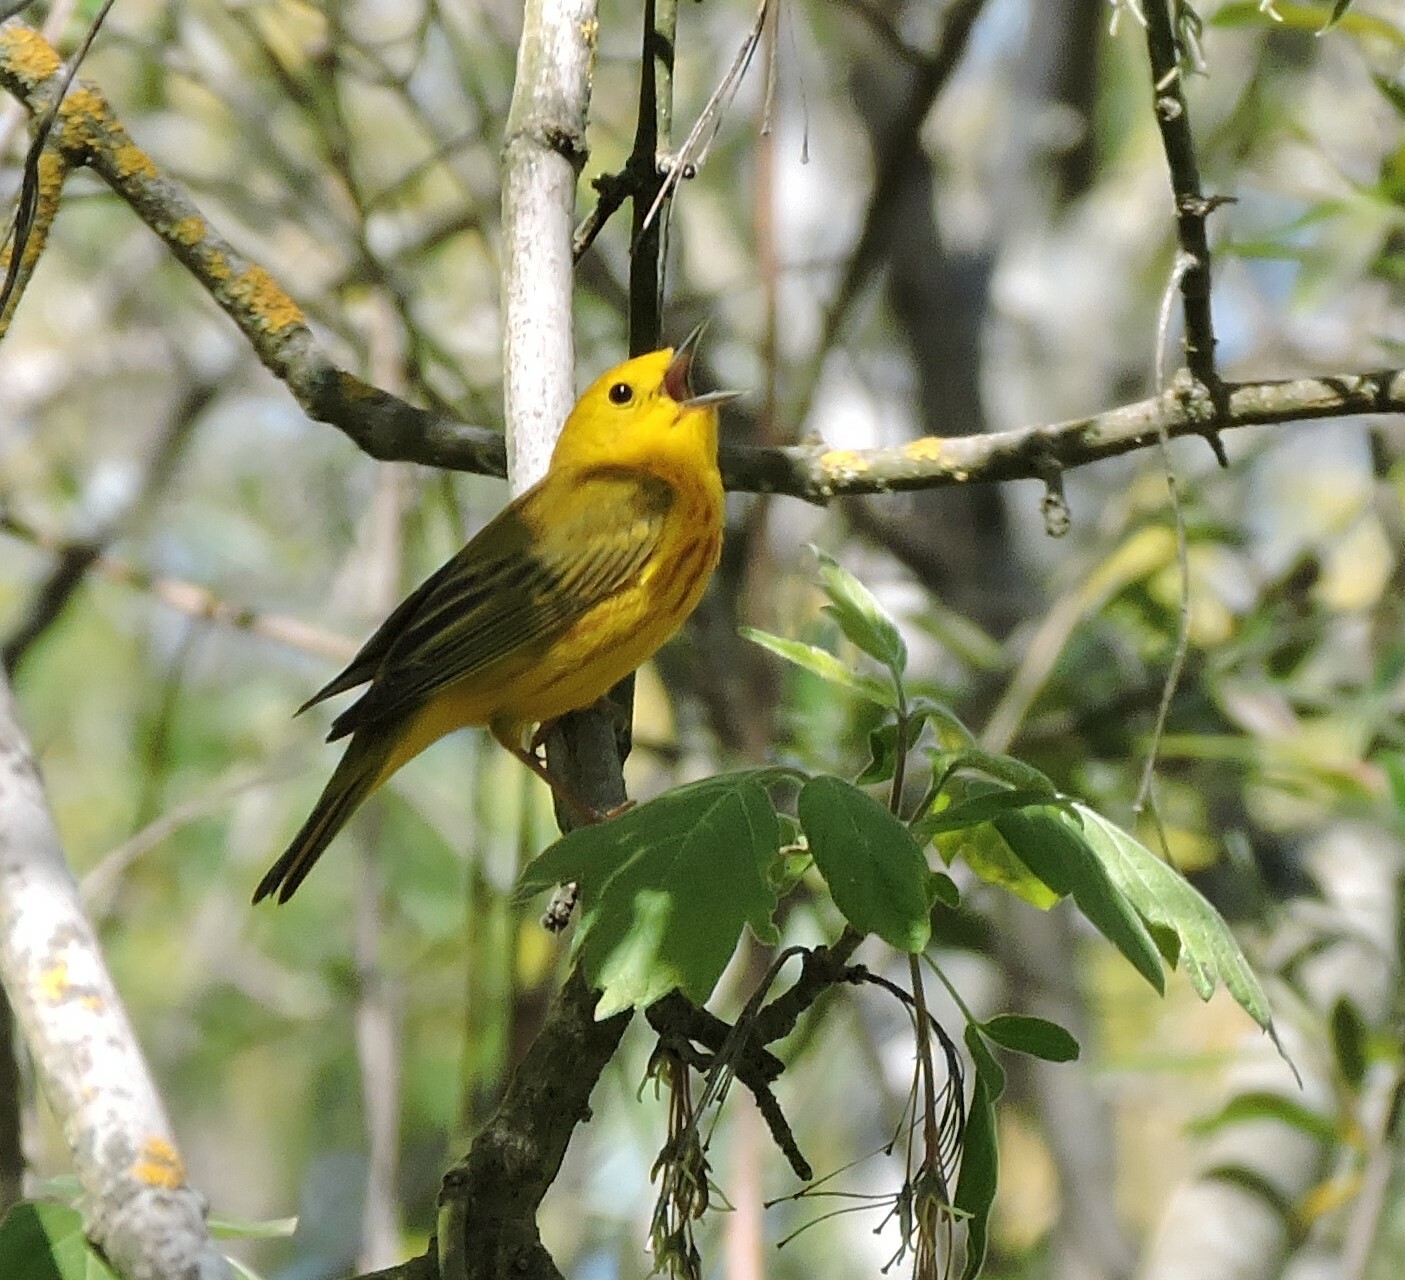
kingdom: Animalia
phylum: Chordata
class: Aves
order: Passeriformes
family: Parulidae
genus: Setophaga
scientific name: Setophaga petechia
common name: Yellow warbler
